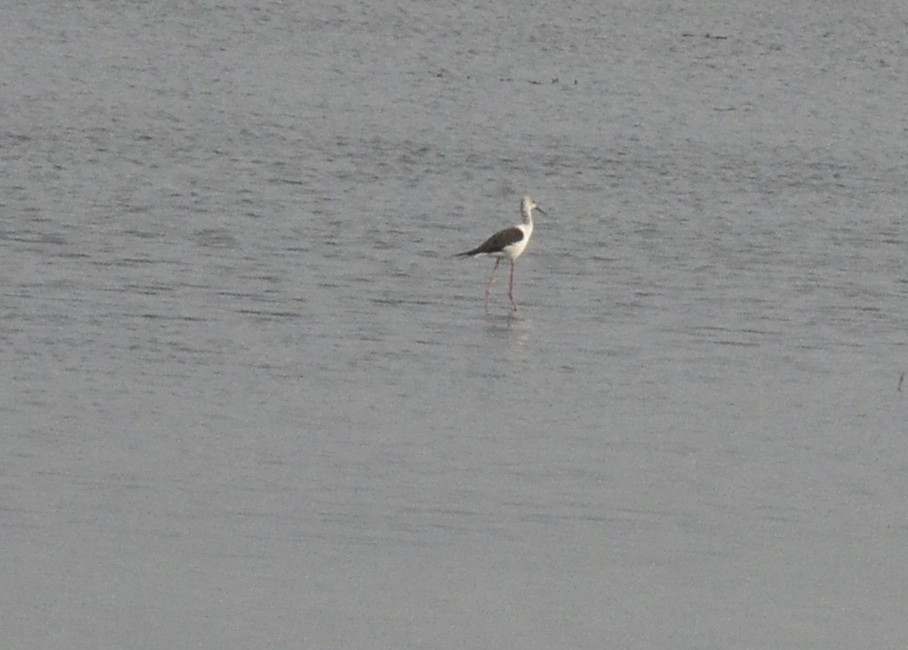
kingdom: Animalia
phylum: Chordata
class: Aves
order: Charadriiformes
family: Recurvirostridae
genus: Himantopus
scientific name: Himantopus himantopus
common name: Black-winged stilt
